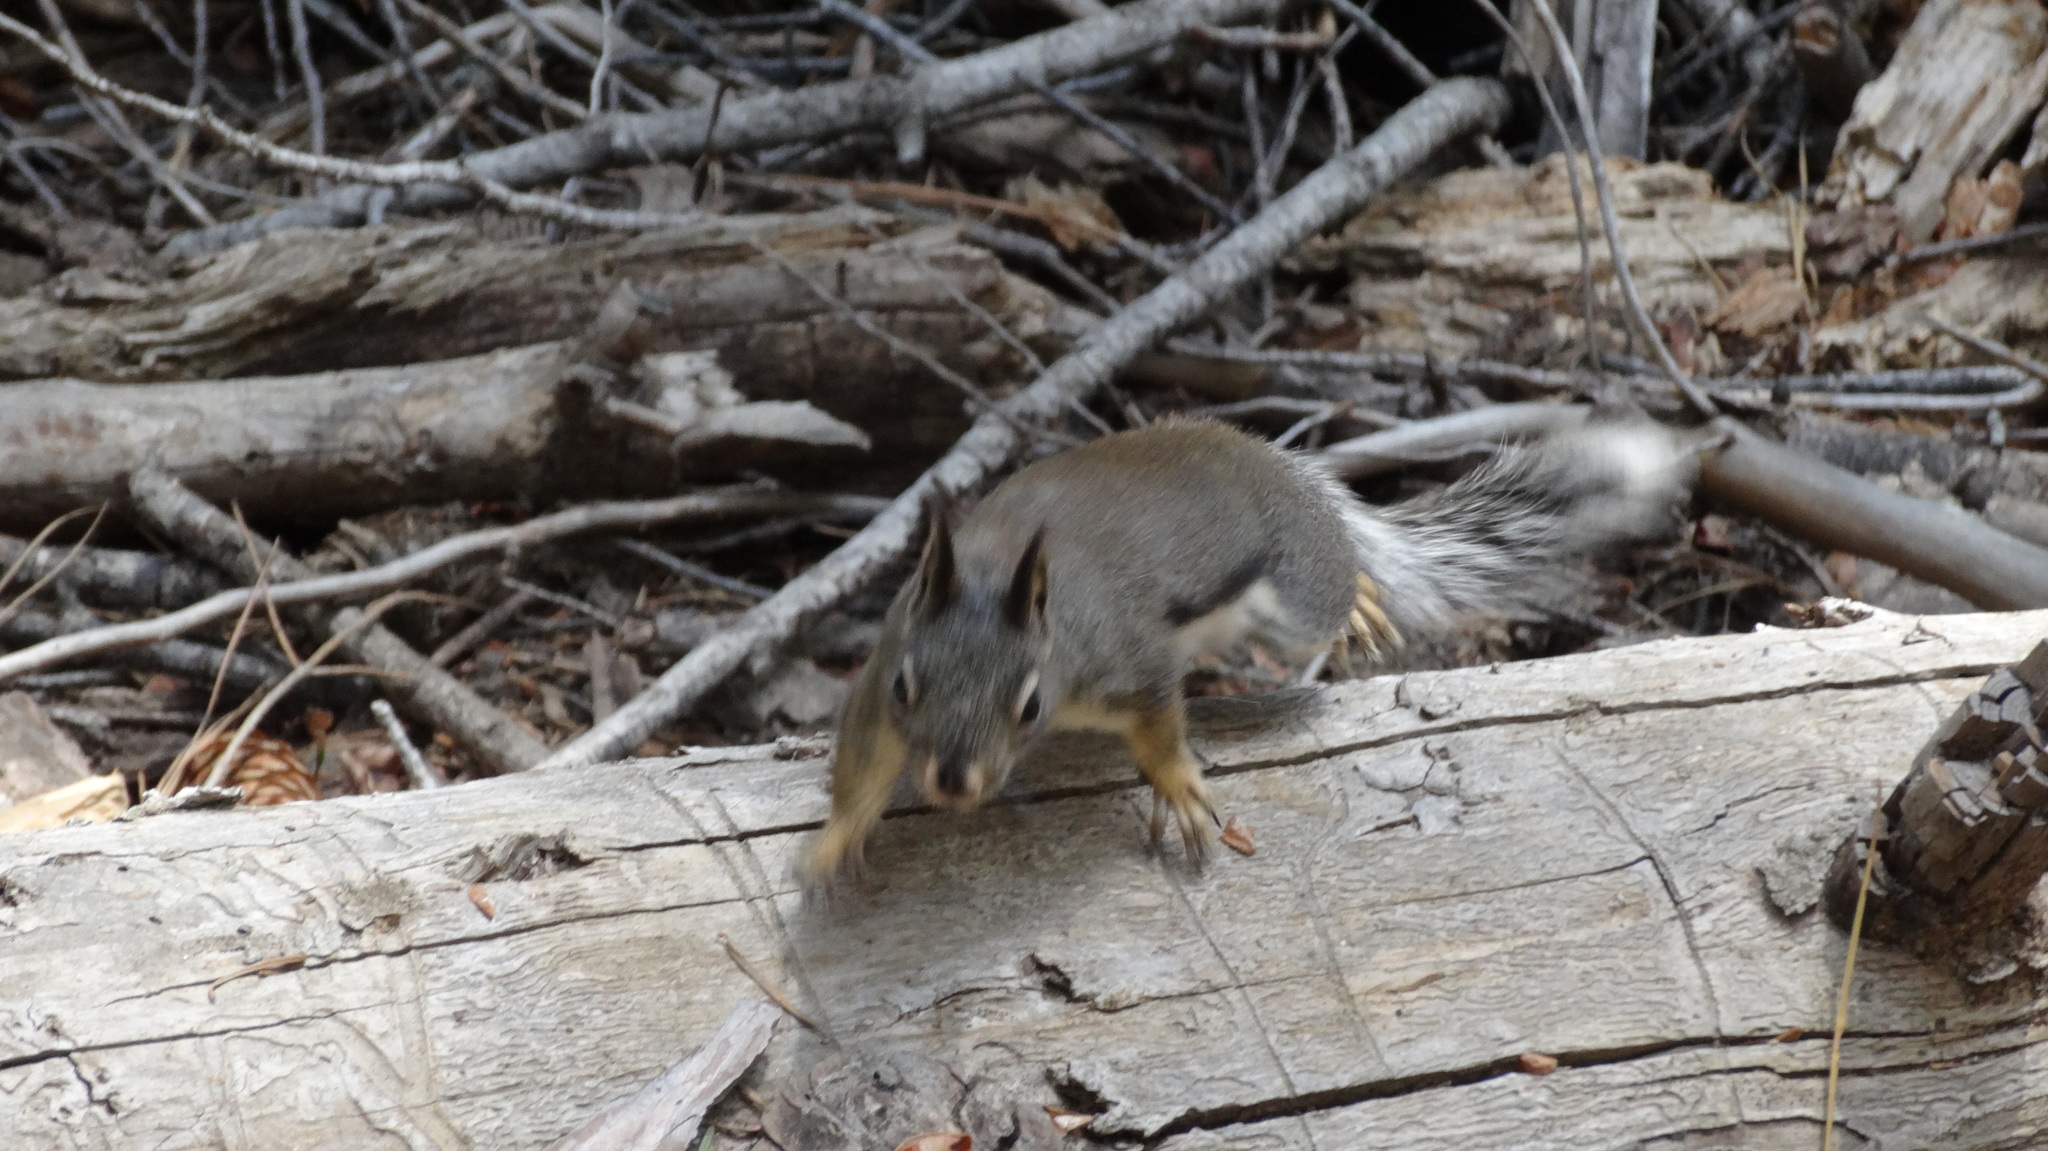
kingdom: Animalia
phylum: Chordata
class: Mammalia
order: Rodentia
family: Sciuridae
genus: Tamiasciurus
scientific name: Tamiasciurus douglasii
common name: Douglas's squirrel
